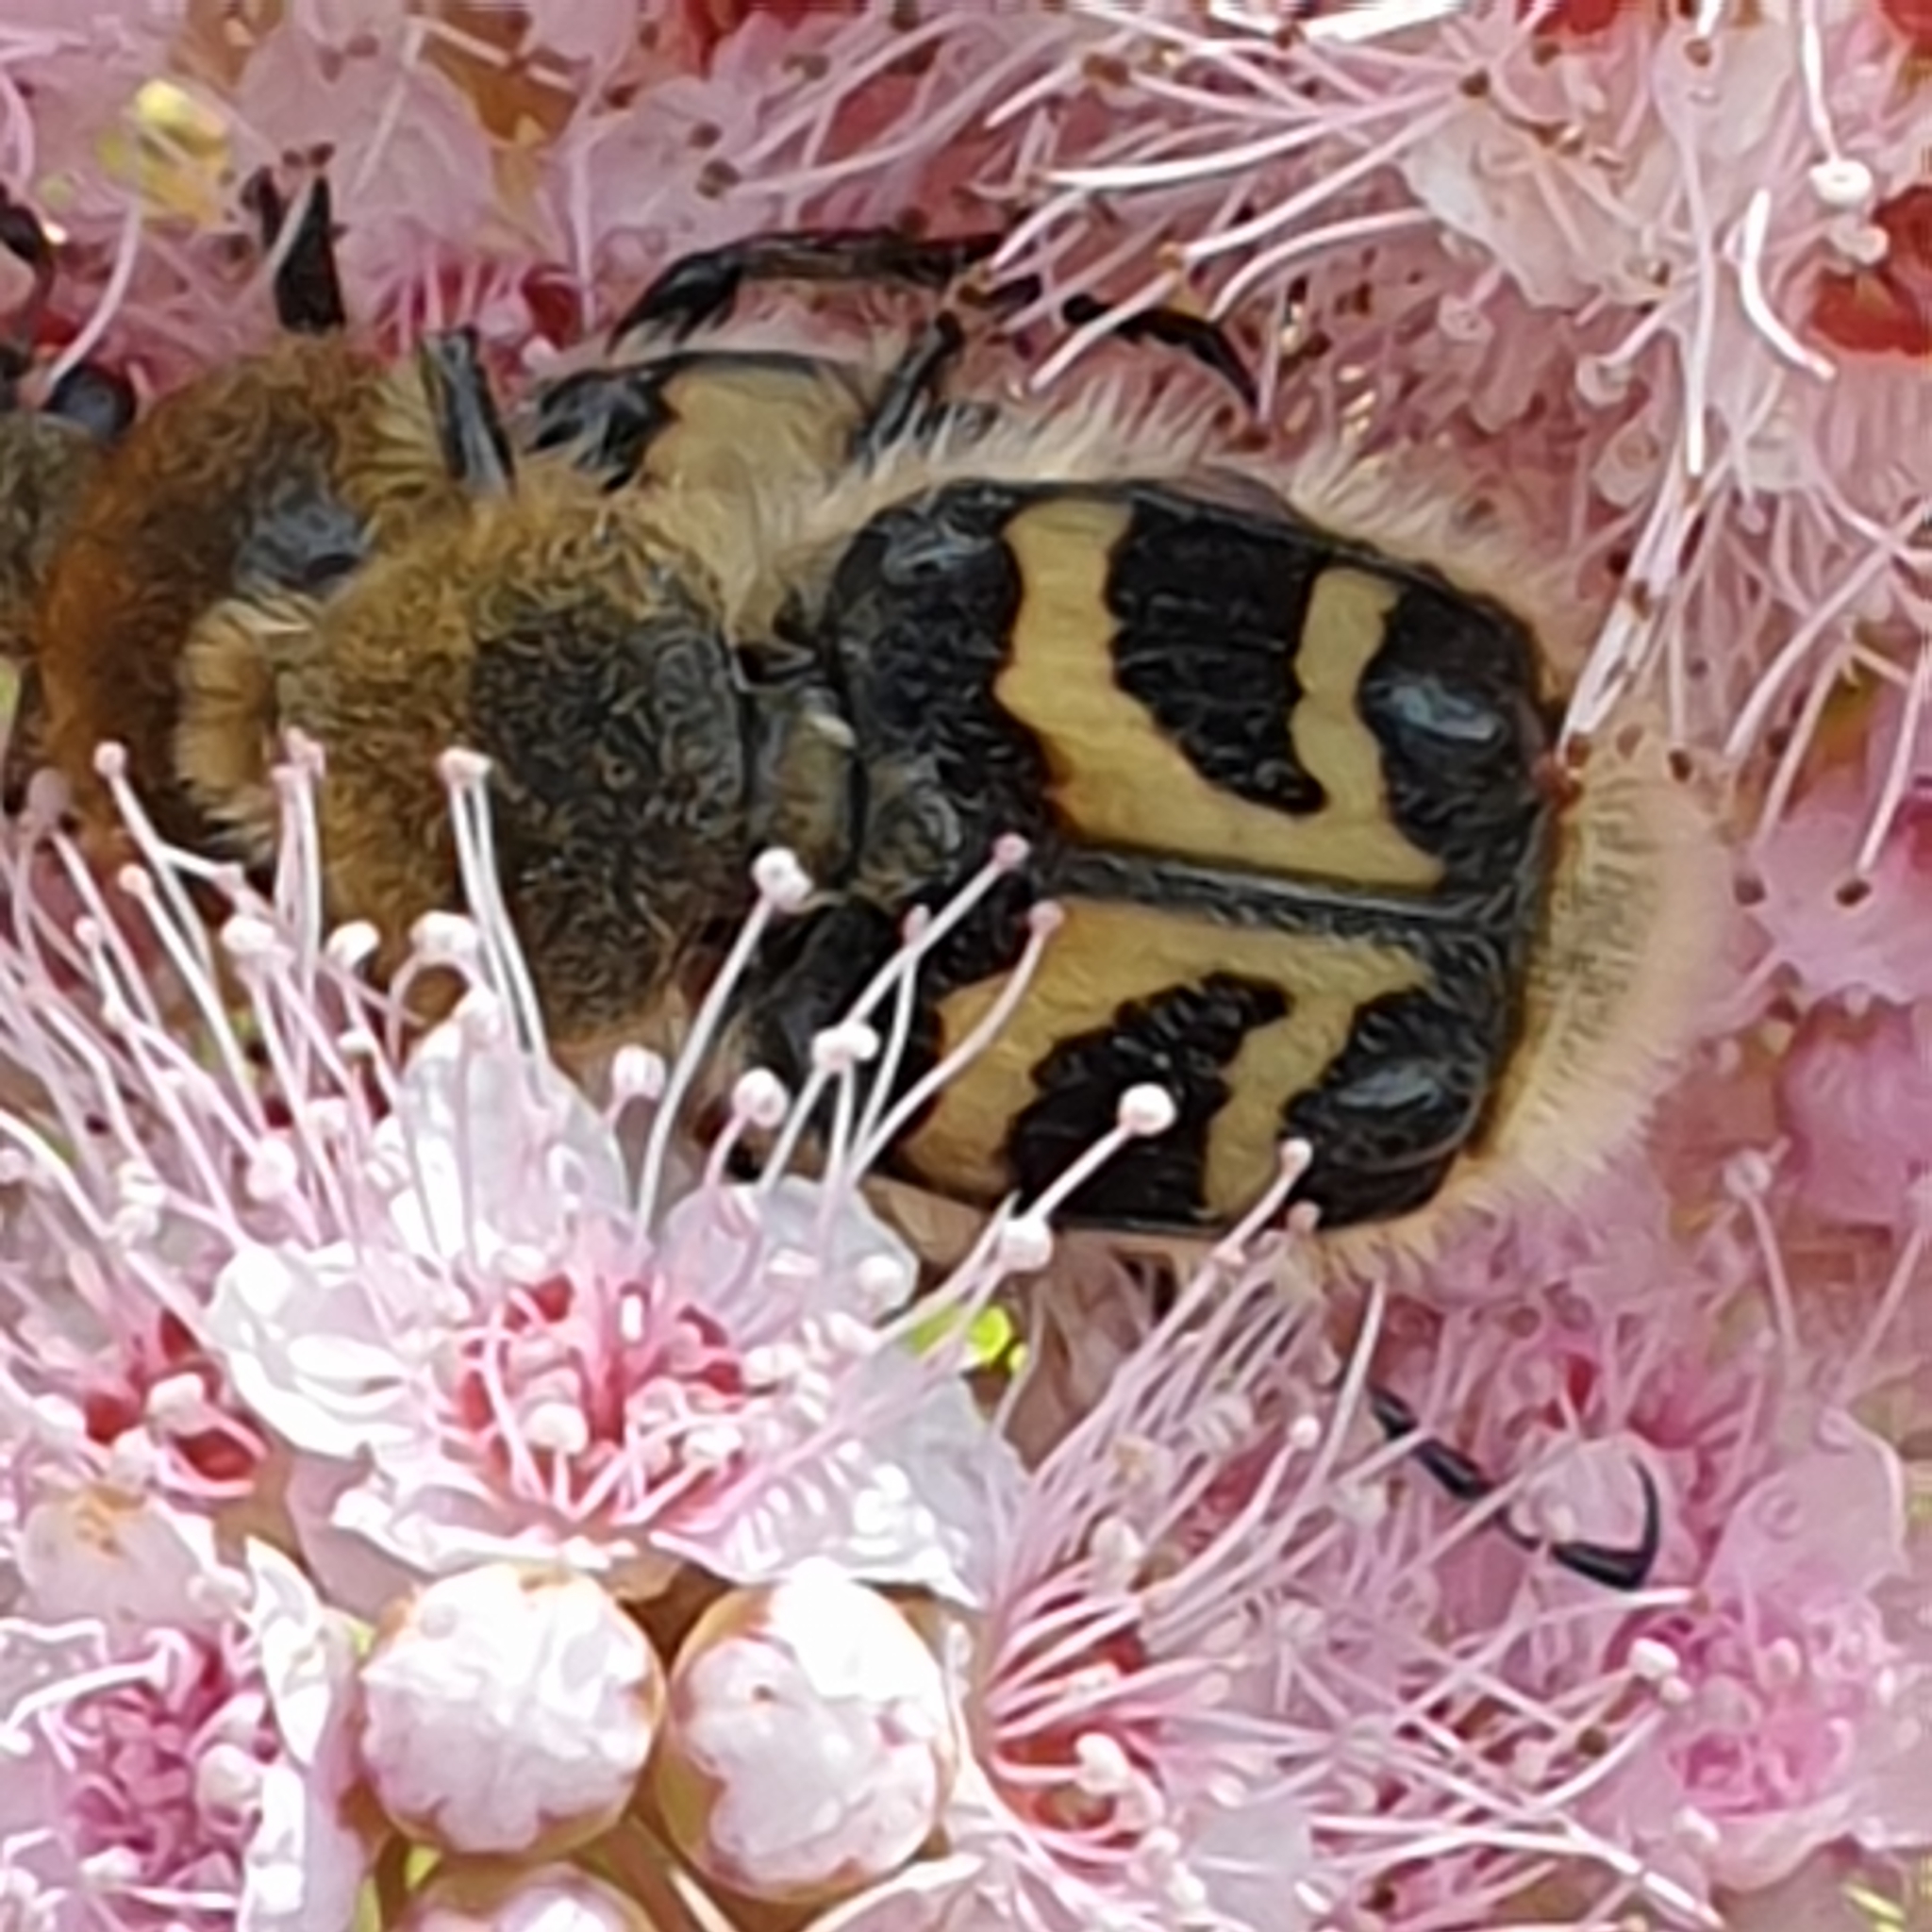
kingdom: Animalia
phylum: Arthropoda
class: Insecta
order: Coleoptera
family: Scarabaeidae
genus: Trichius
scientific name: Trichius fasciatus
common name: Bee beetle
